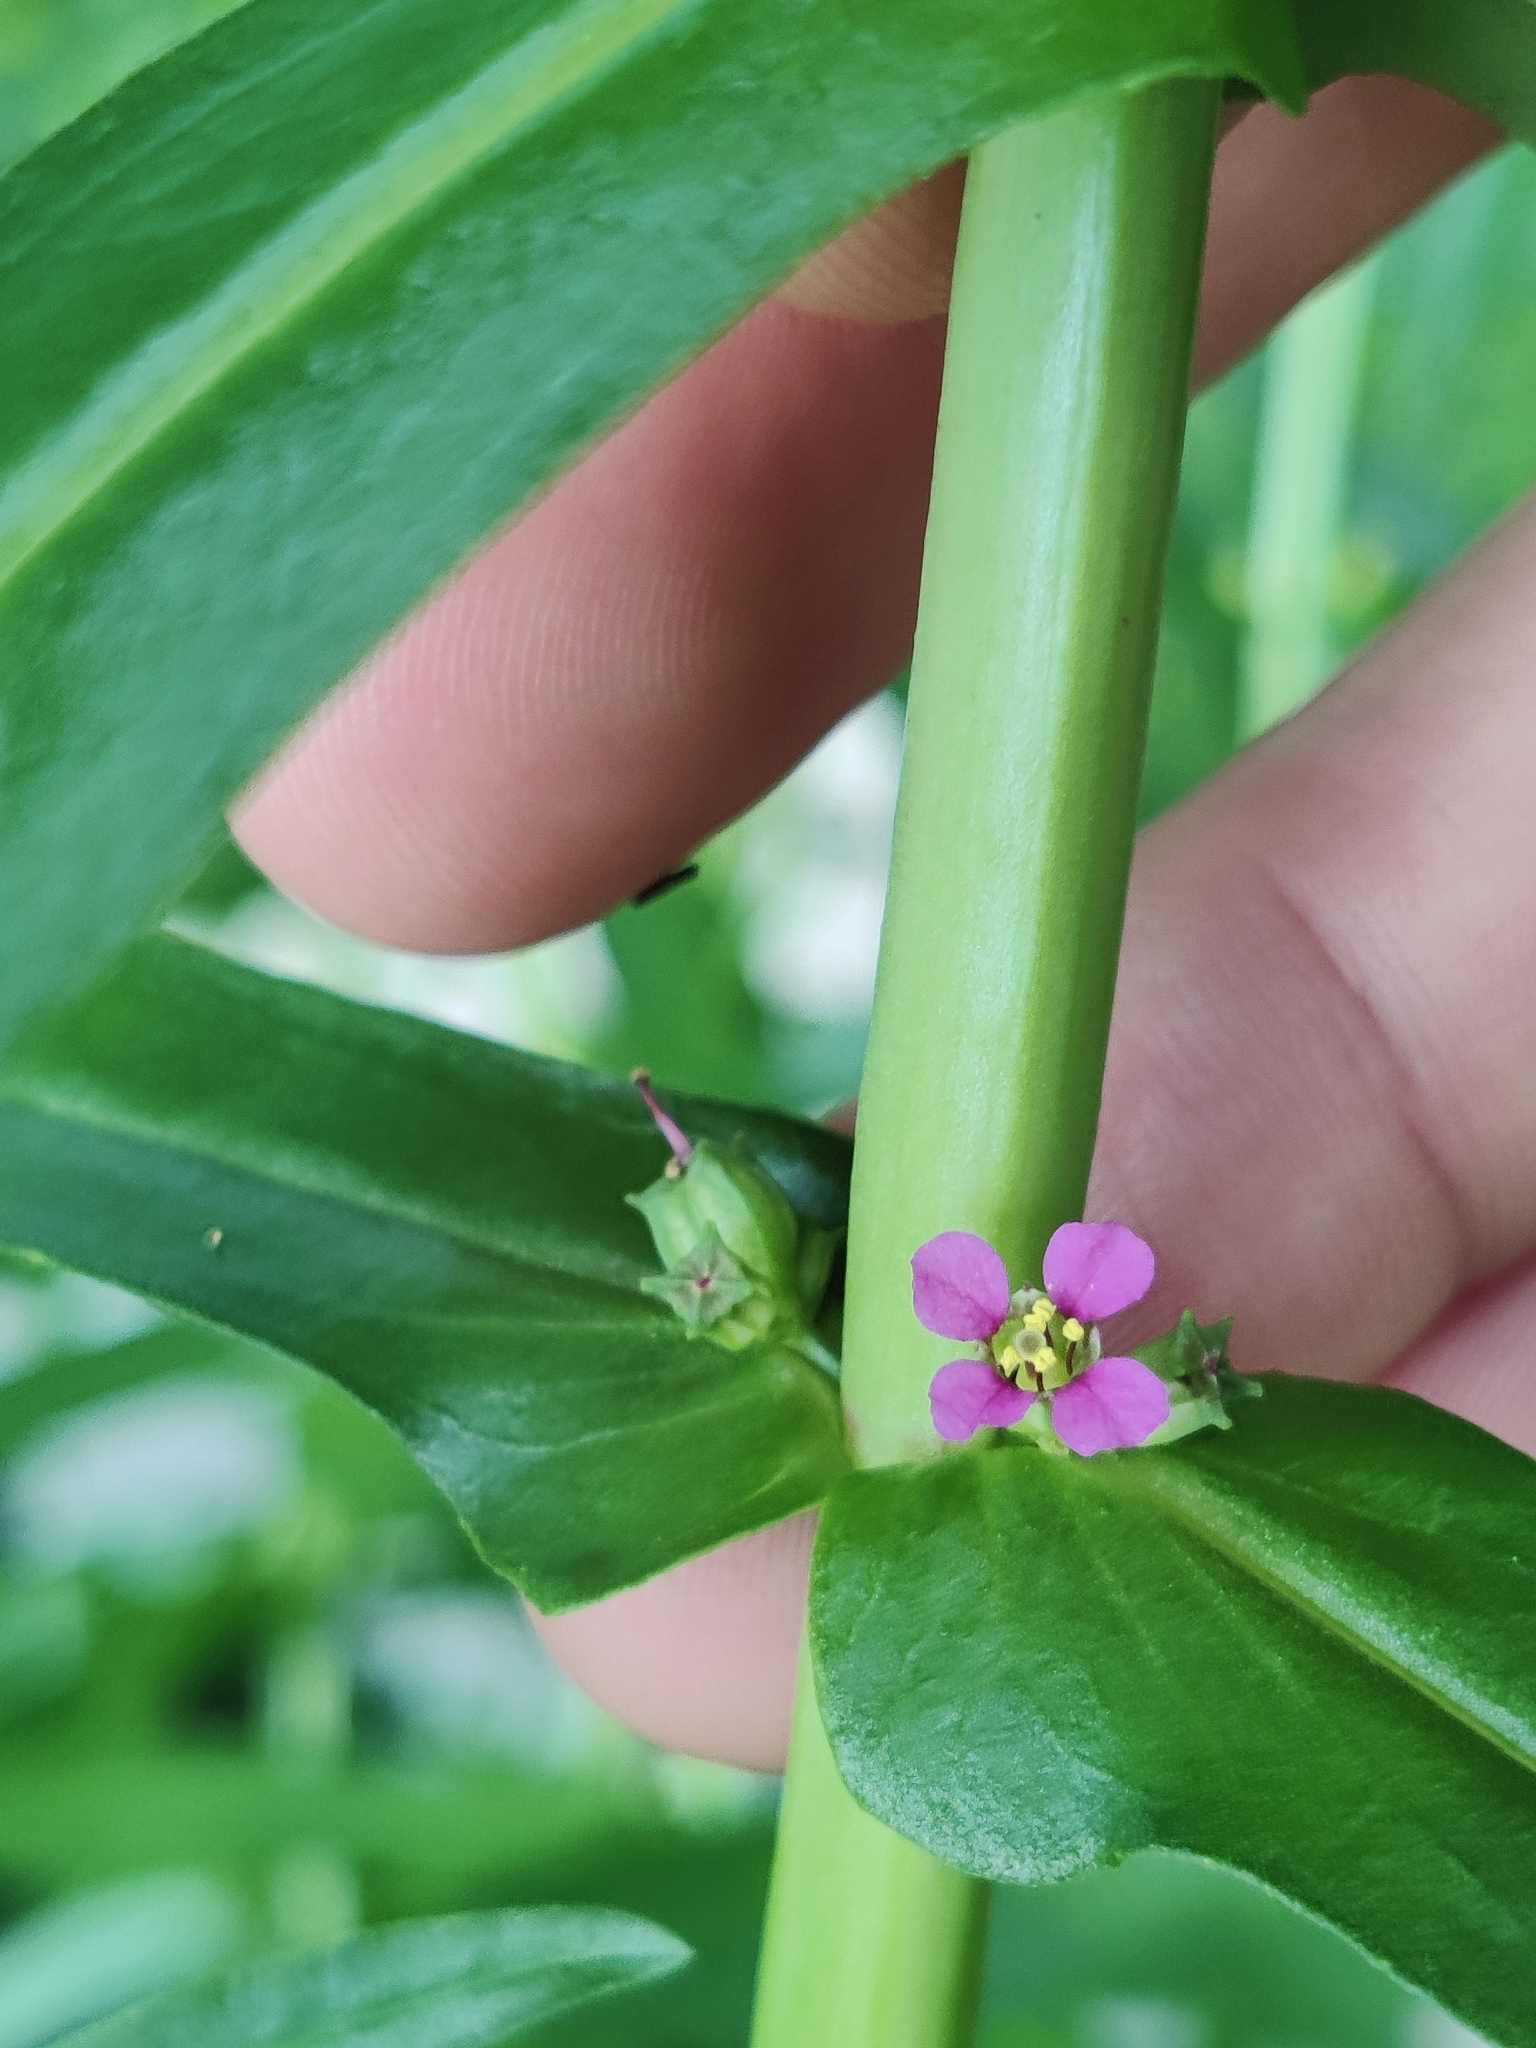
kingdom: Plantae
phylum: Tracheophyta
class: Magnoliopsida
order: Myrtales
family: Lythraceae
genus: Ammannia
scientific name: Ammannia coccinea
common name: Valley redstem
